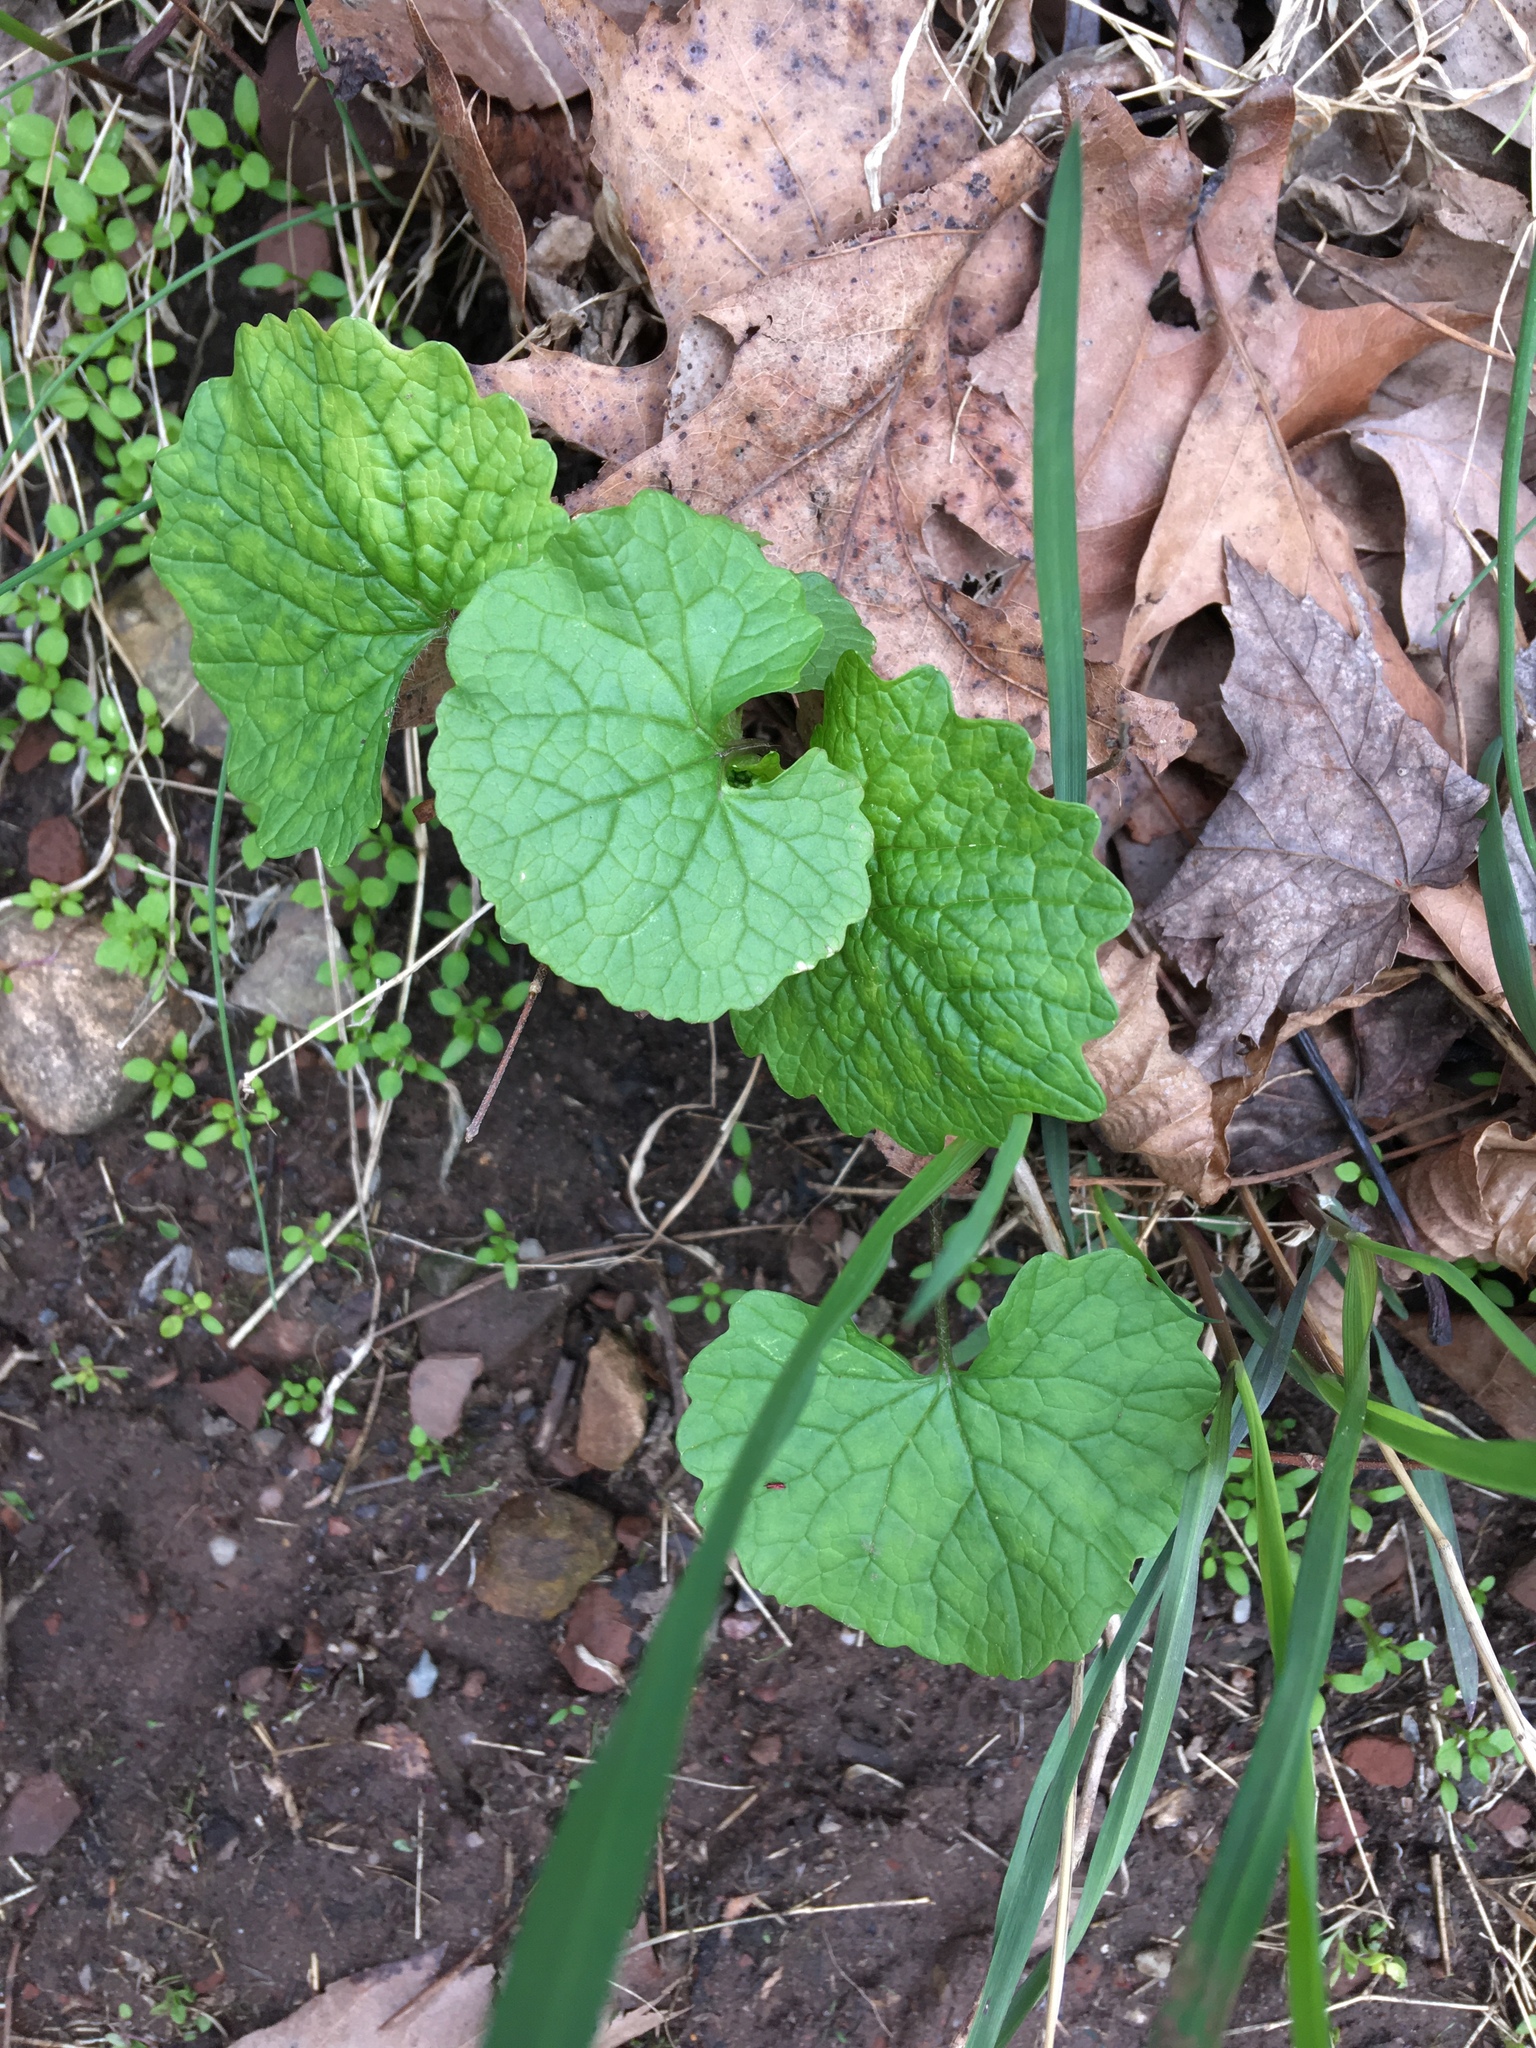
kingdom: Plantae
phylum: Tracheophyta
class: Magnoliopsida
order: Brassicales
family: Brassicaceae
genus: Alliaria
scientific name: Alliaria petiolata
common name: Garlic mustard
